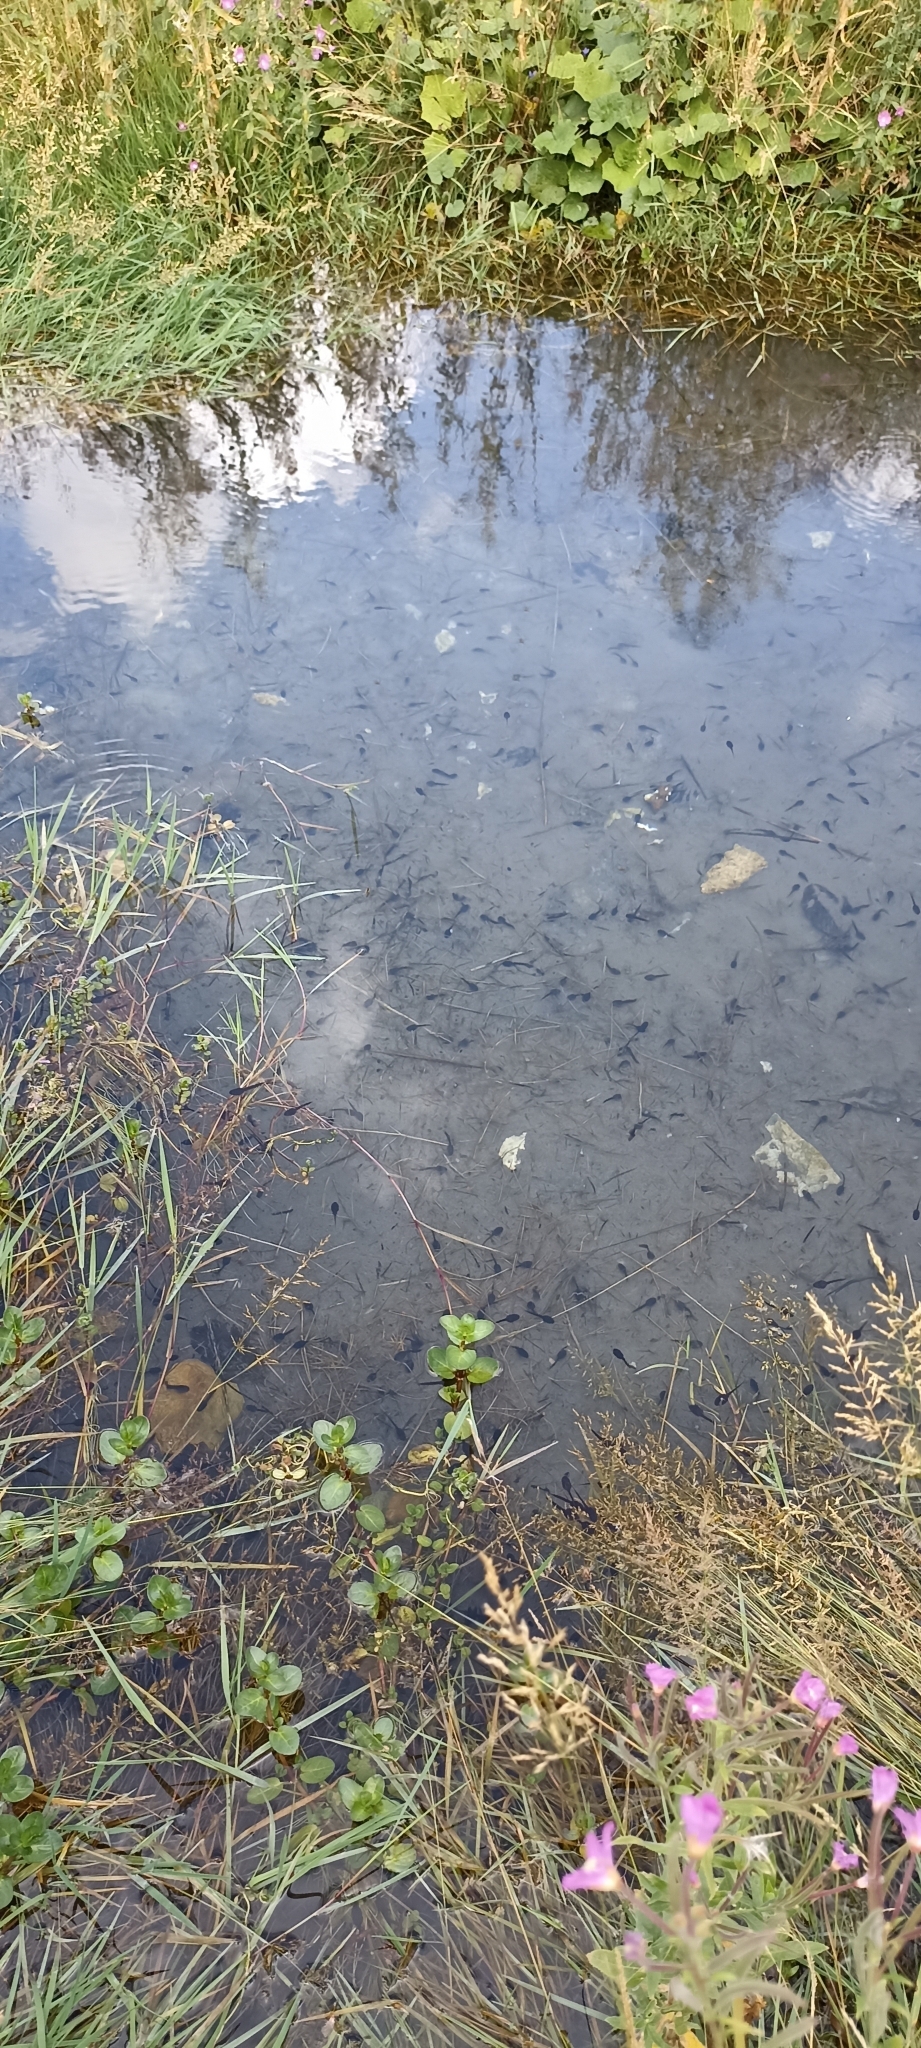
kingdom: Animalia
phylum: Chordata
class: Amphibia
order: Anura
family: Ranidae
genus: Rana
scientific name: Rana temporaria
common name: Common frog
